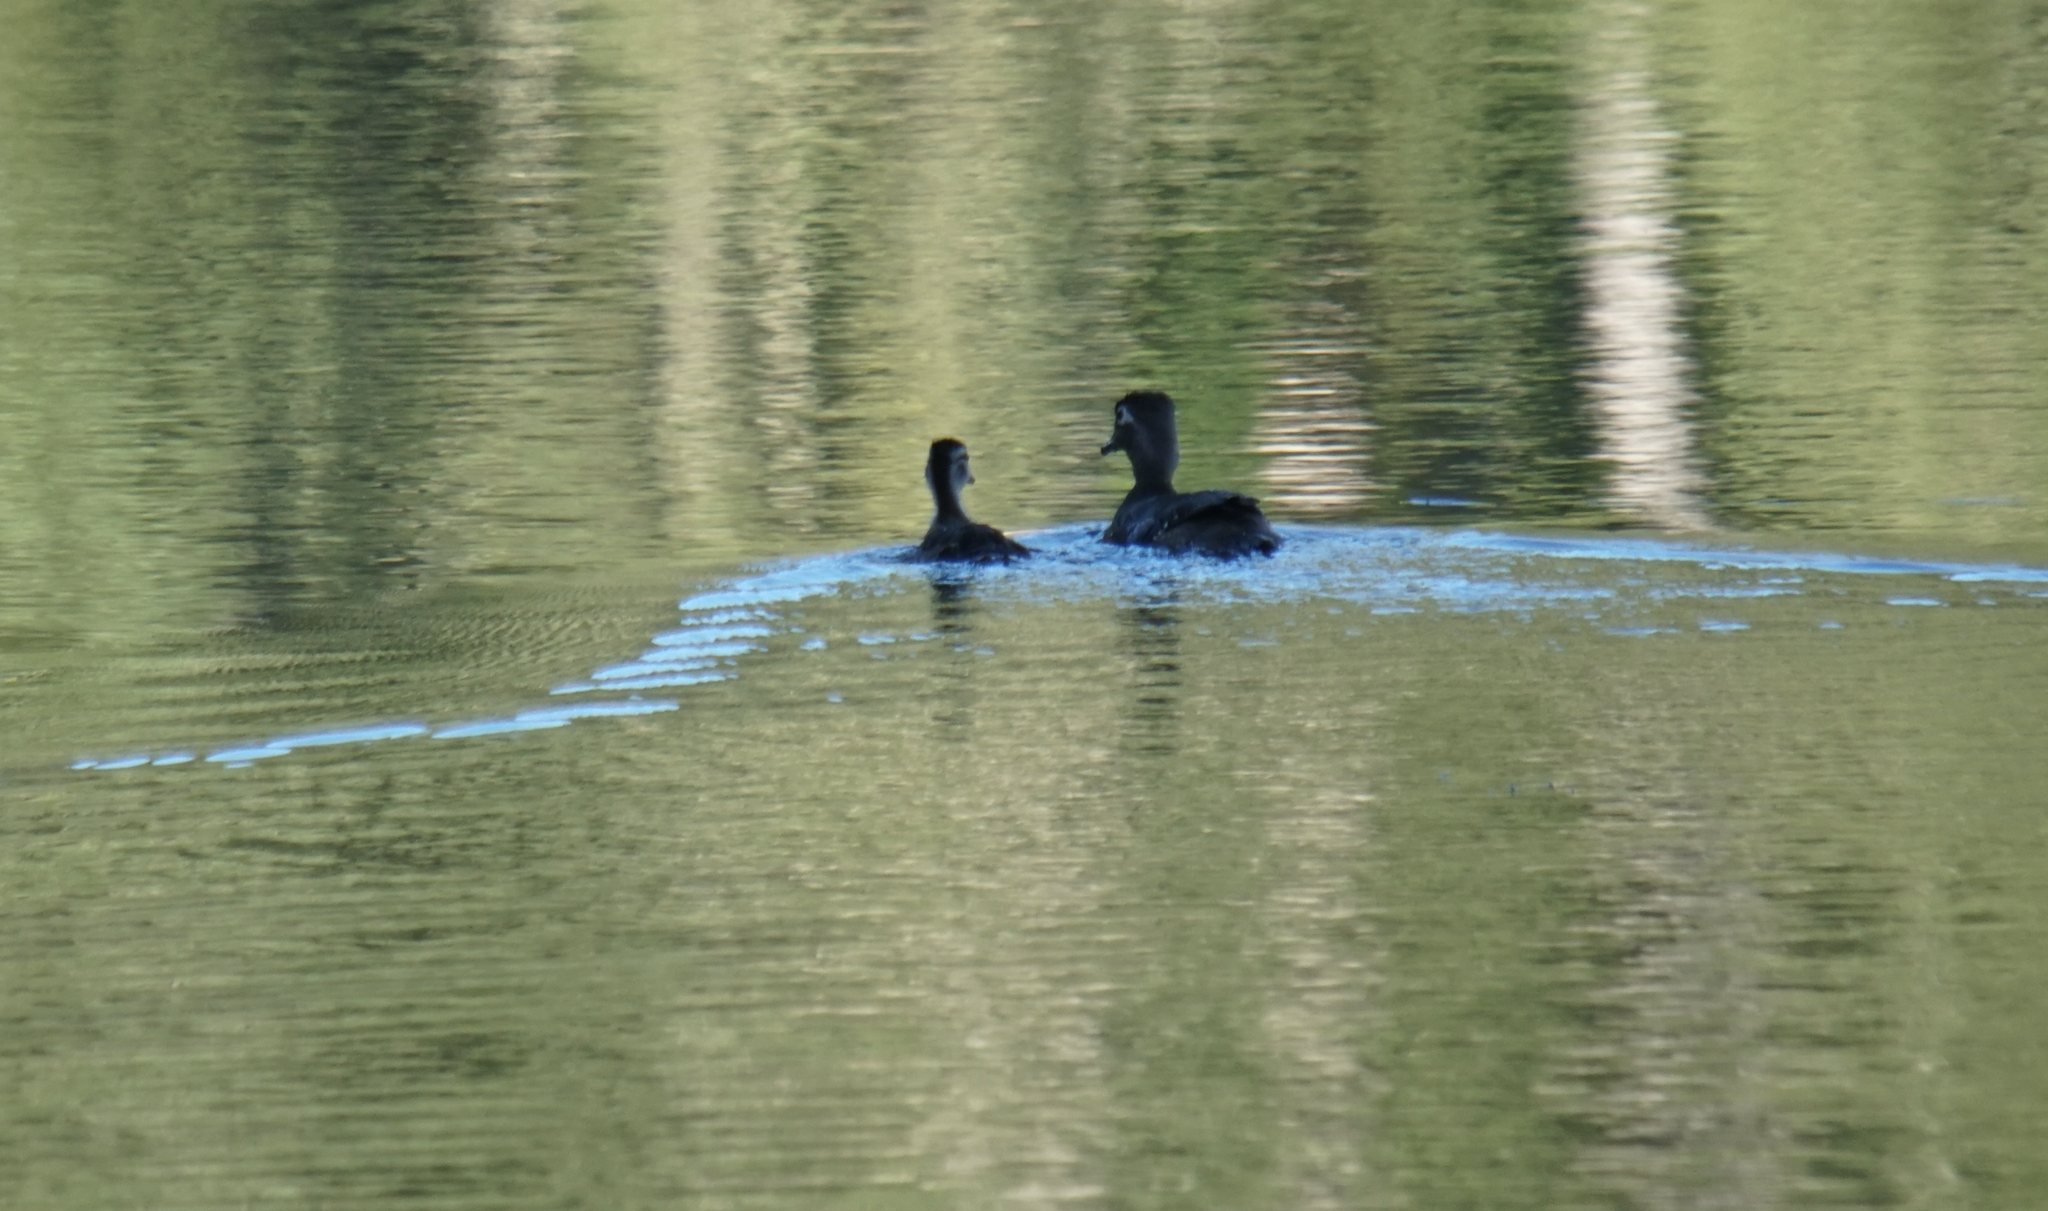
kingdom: Animalia
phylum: Chordata
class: Aves
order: Anseriformes
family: Anatidae
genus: Aix
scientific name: Aix sponsa
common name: Wood duck
